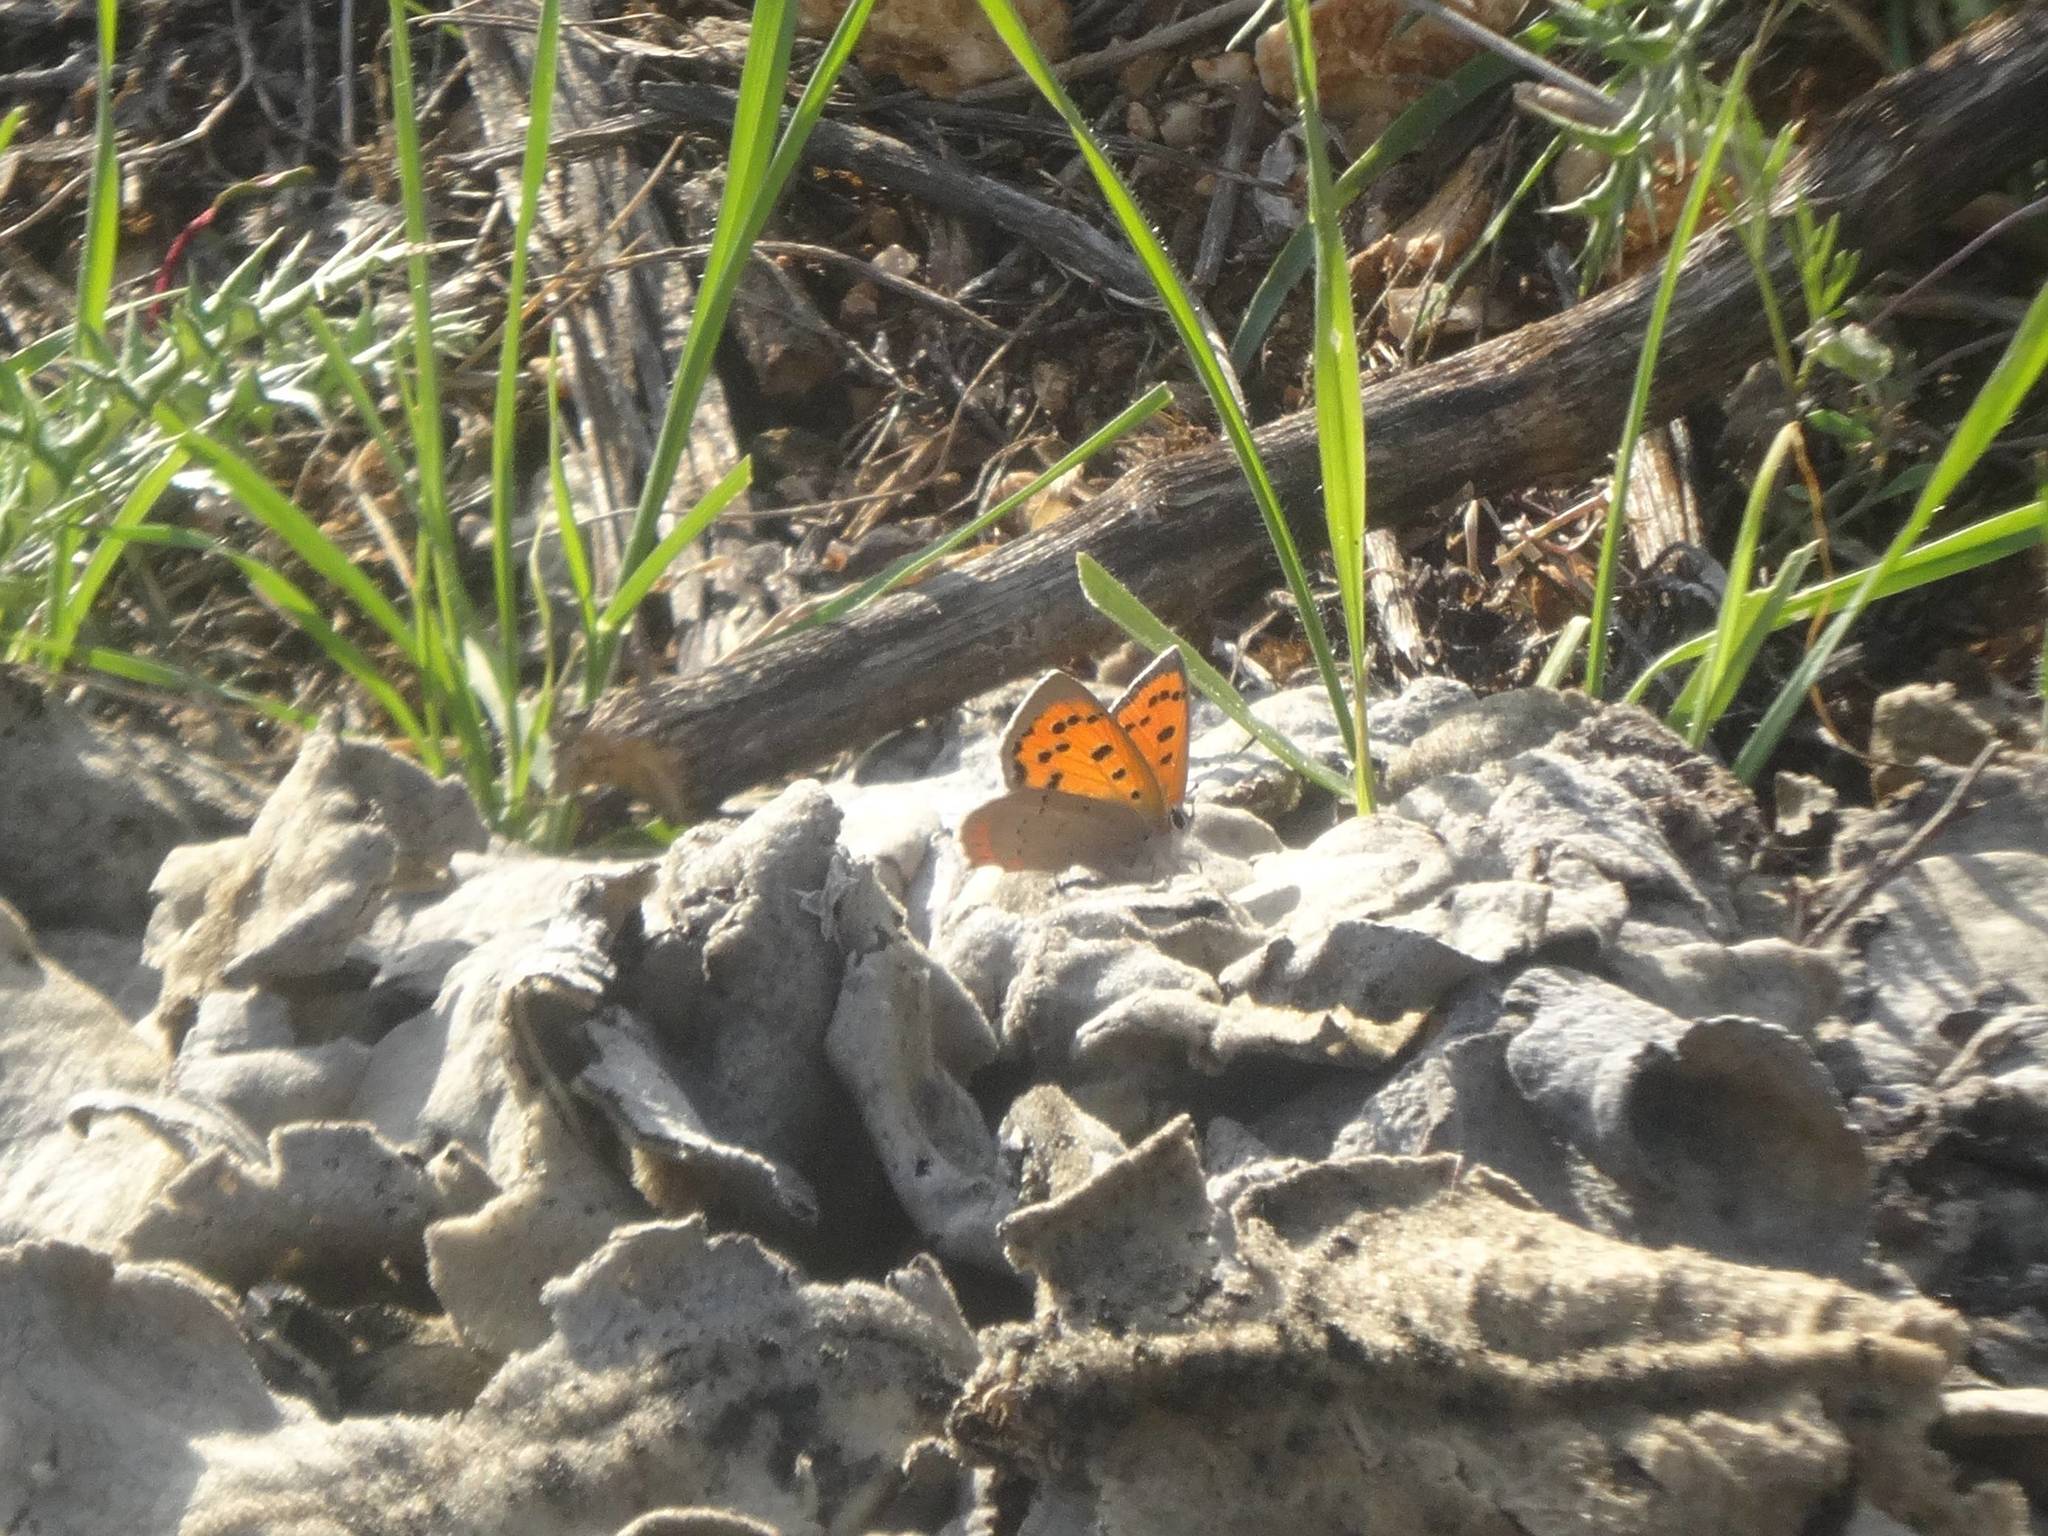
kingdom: Animalia
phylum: Arthropoda
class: Insecta
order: Lepidoptera
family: Lycaenidae
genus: Lycaena
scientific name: Lycaena phlaeas
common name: Small copper
